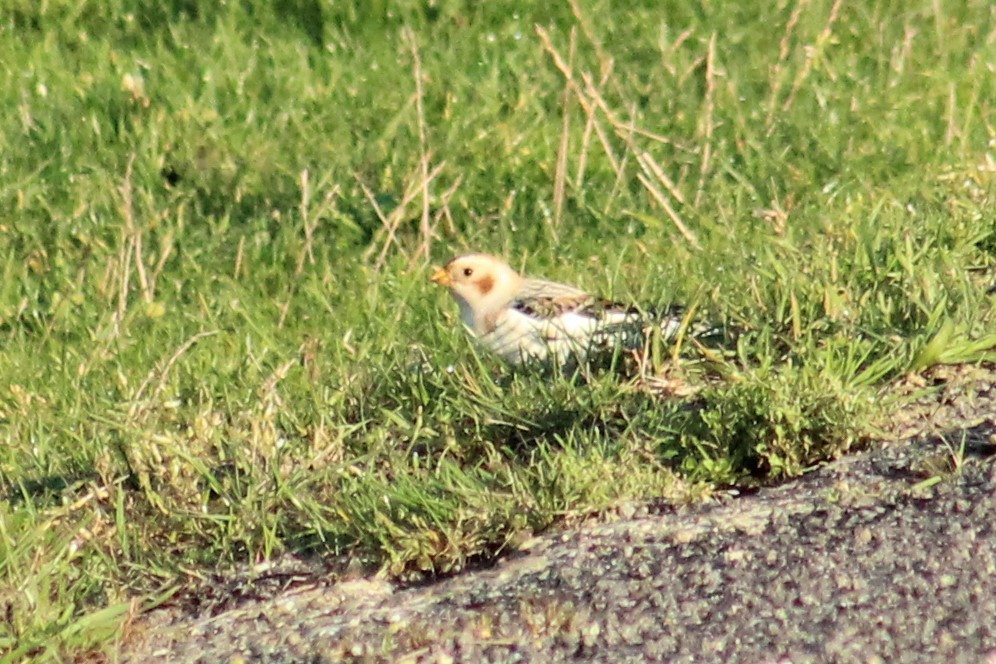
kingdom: Animalia
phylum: Chordata
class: Aves
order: Passeriformes
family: Calcariidae
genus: Plectrophenax
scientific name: Plectrophenax nivalis
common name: Snow bunting
